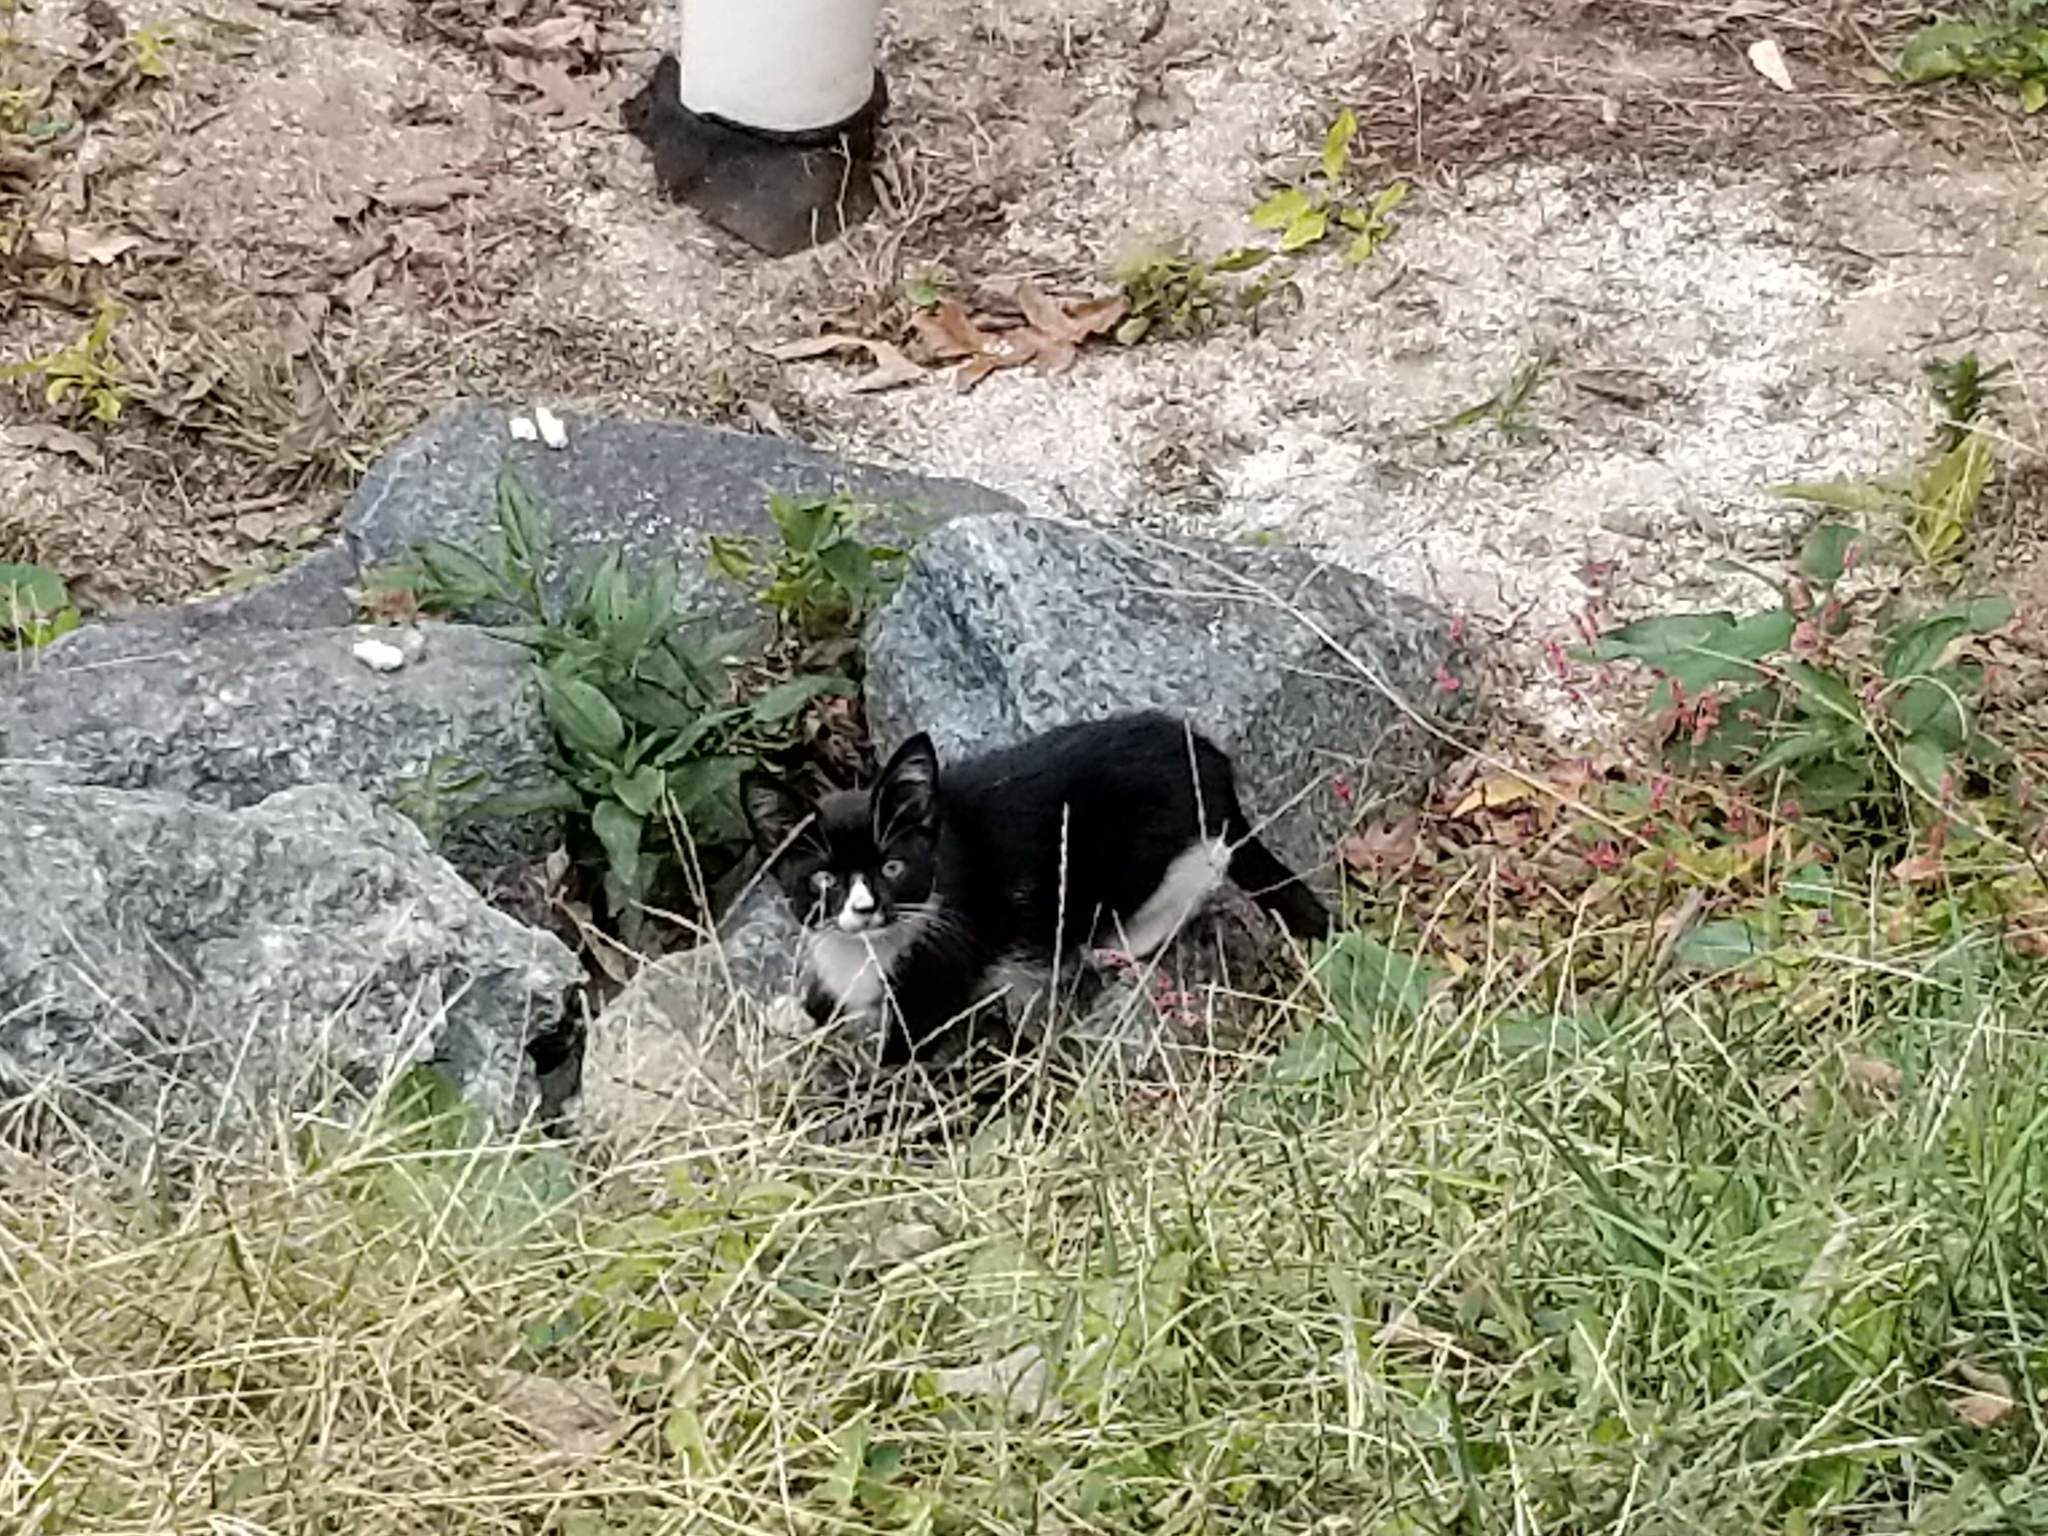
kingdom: Animalia
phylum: Chordata
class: Mammalia
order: Carnivora
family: Felidae
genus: Felis
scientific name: Felis catus
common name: Domestic cat
